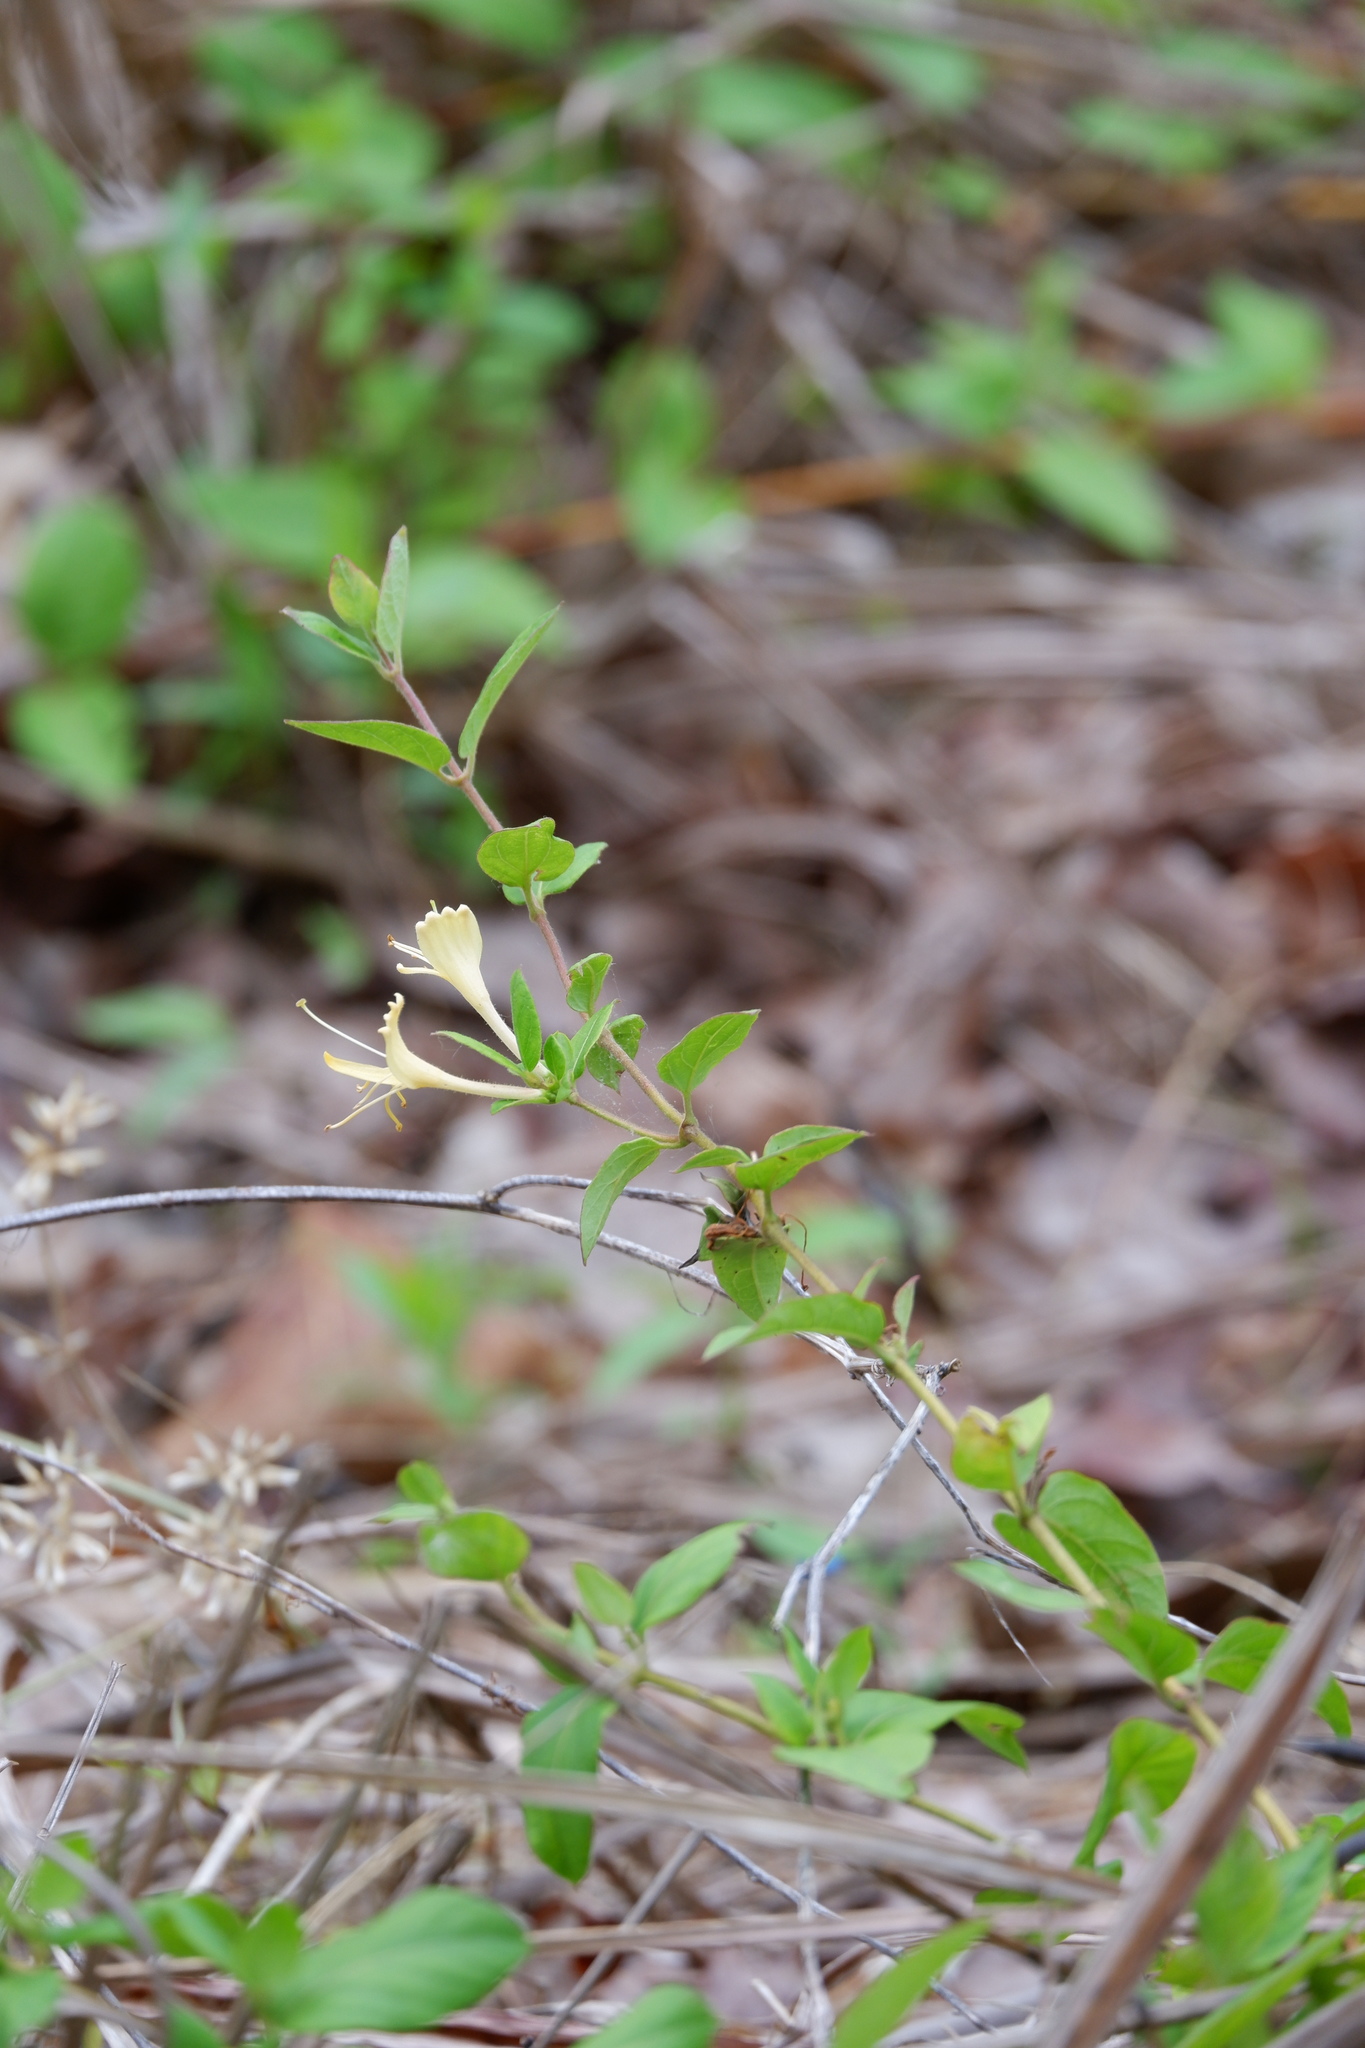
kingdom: Plantae
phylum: Tracheophyta
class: Magnoliopsida
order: Dipsacales
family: Caprifoliaceae
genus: Lonicera
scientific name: Lonicera japonica
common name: Japanese honeysuckle
